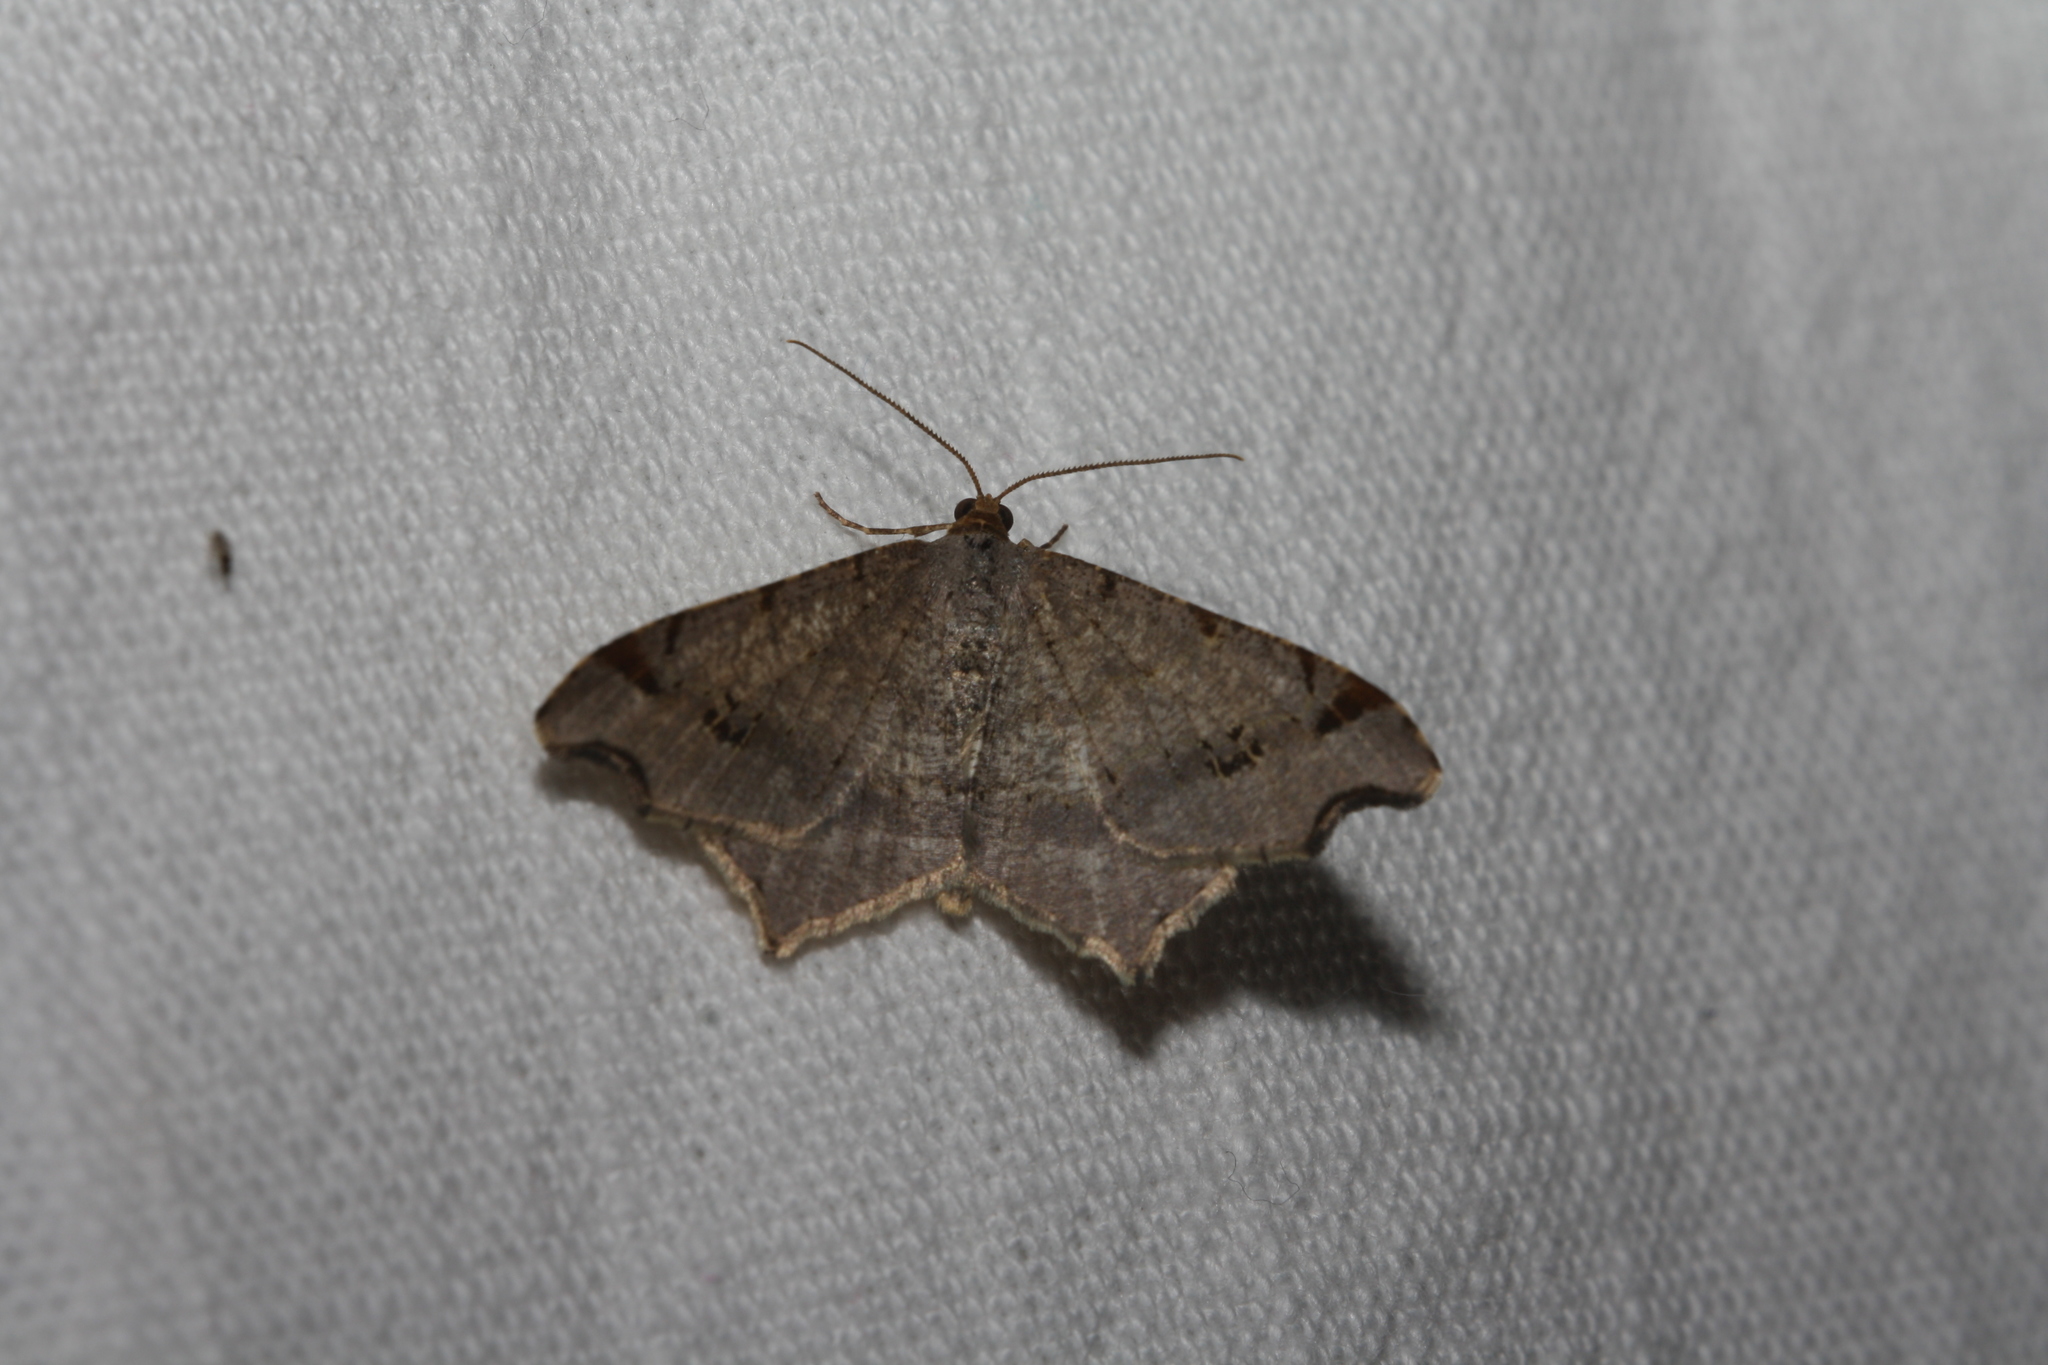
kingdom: Animalia
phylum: Arthropoda
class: Insecta
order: Lepidoptera
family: Geometridae
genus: Macaria
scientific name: Macaria alternata
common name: Sharp-angled peacock
